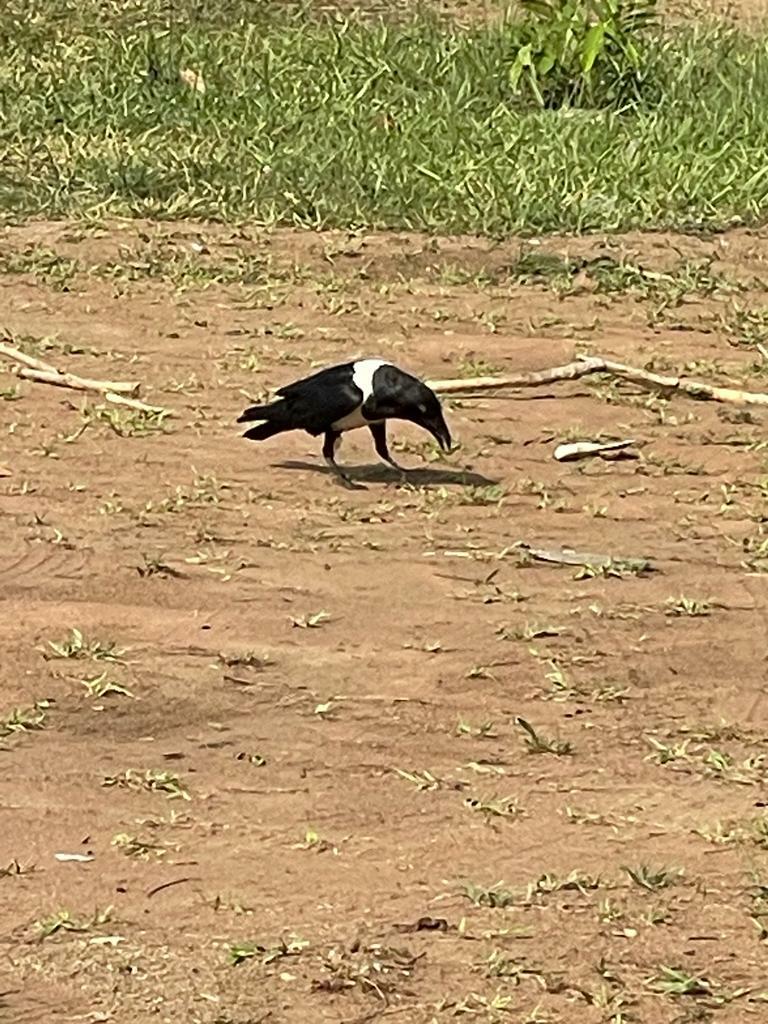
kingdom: Animalia
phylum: Chordata
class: Aves
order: Passeriformes
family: Corvidae
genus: Corvus
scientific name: Corvus albus
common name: Pied crow
